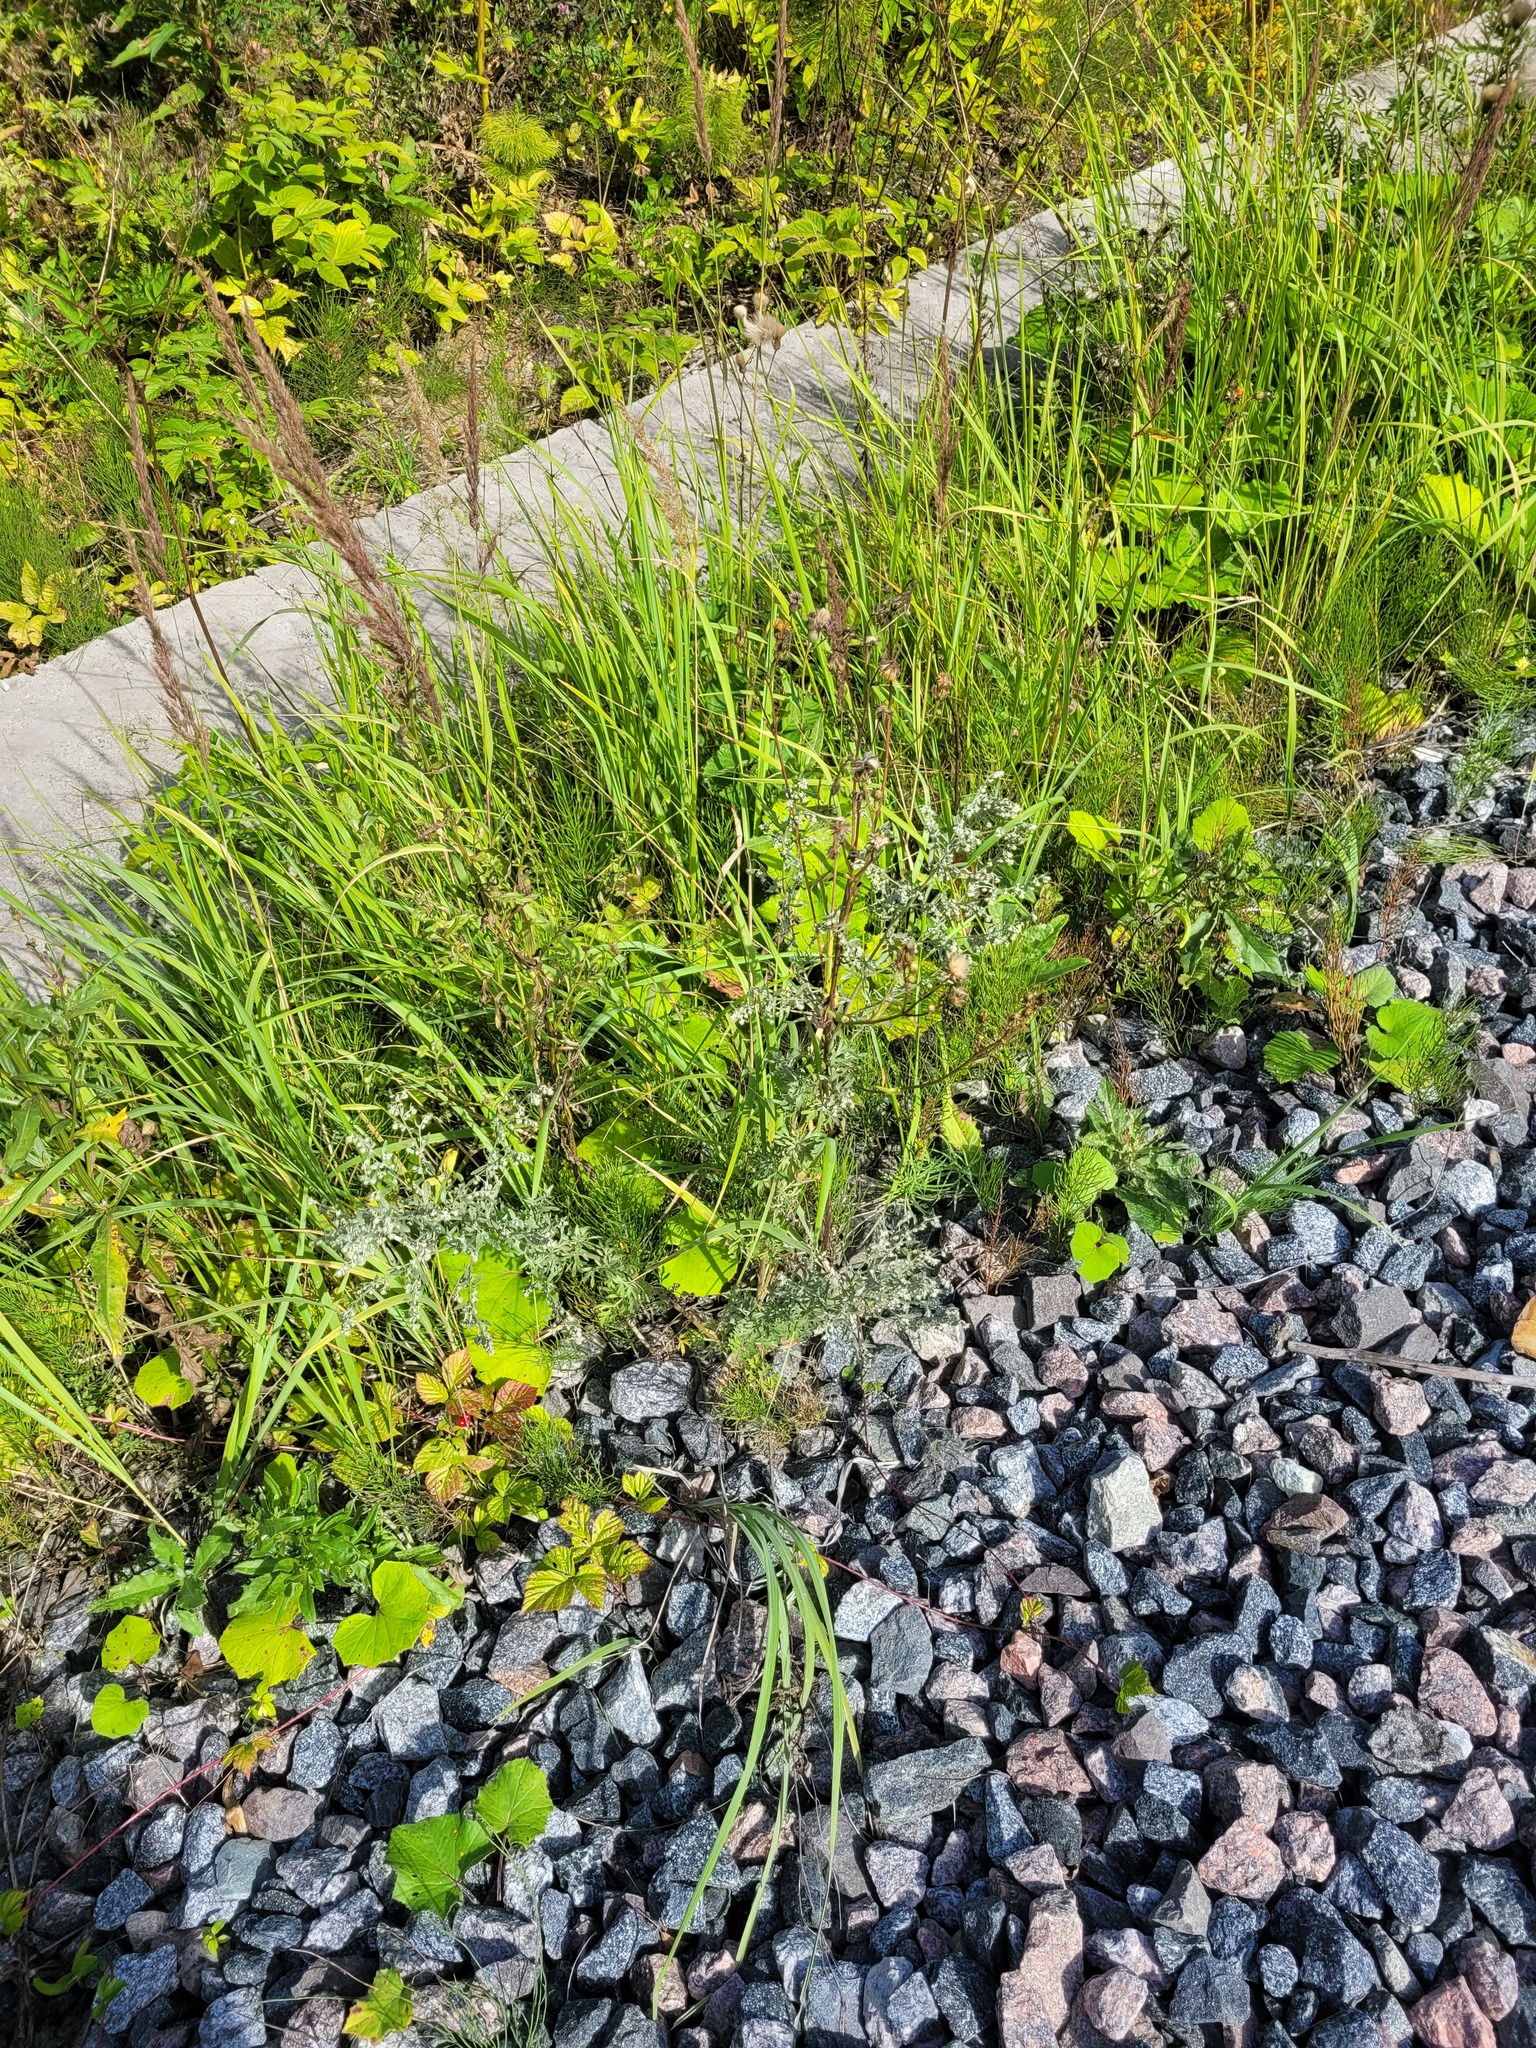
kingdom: Plantae
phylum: Tracheophyta
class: Magnoliopsida
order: Asterales
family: Asteraceae
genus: Artemisia
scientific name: Artemisia absinthium
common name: Wormwood
